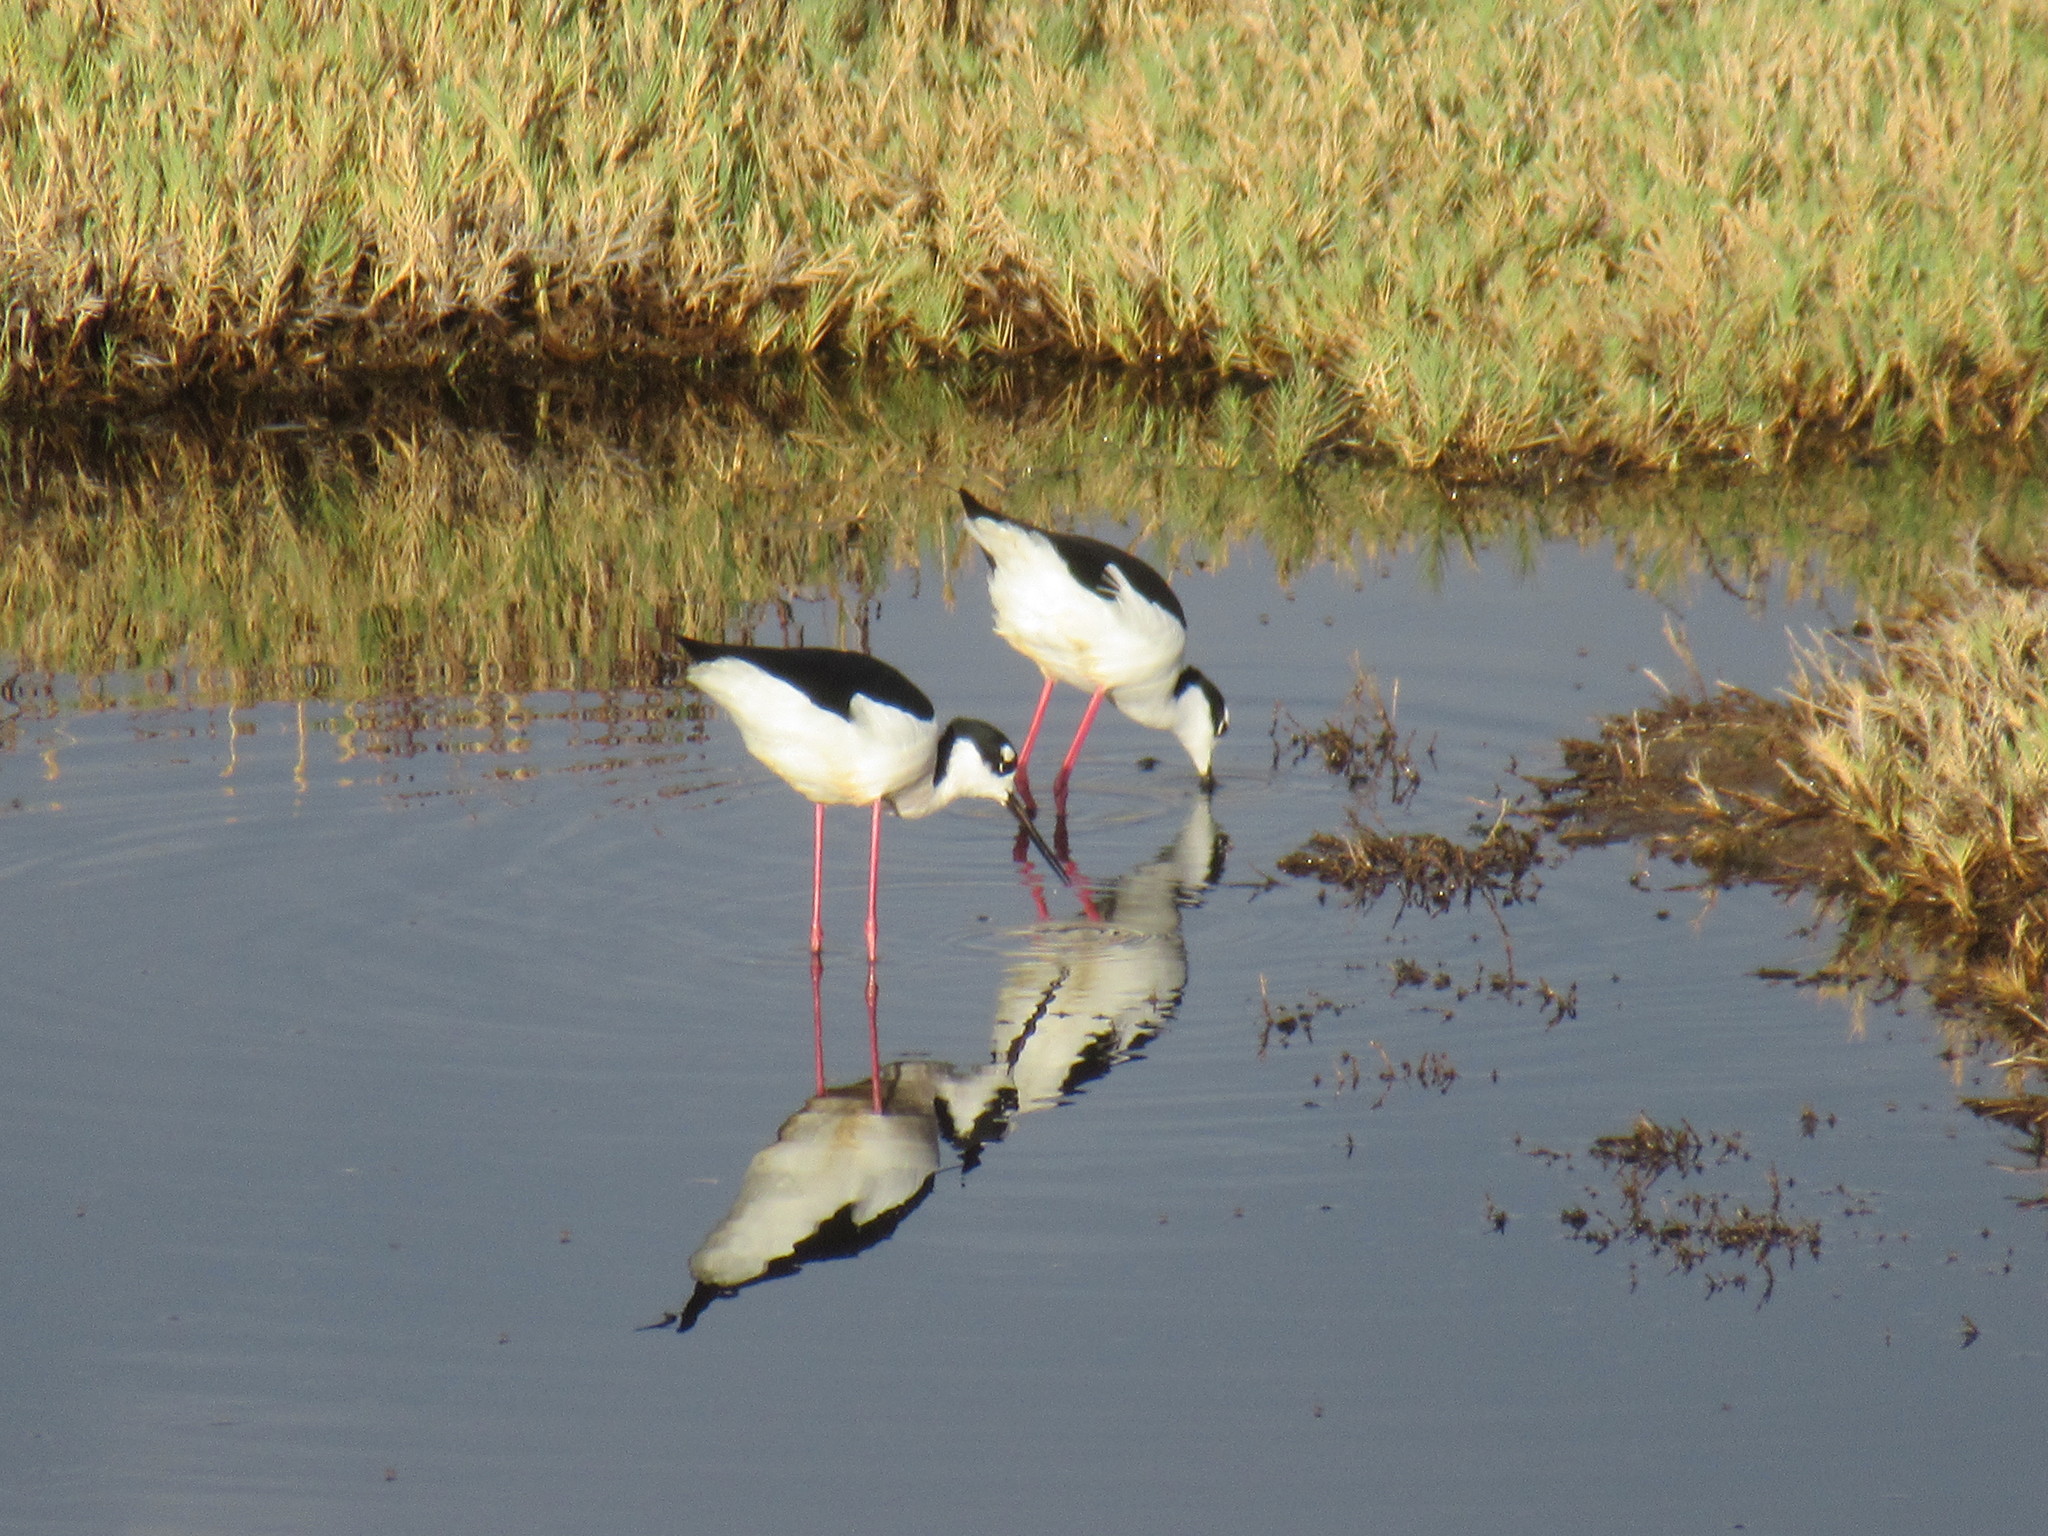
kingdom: Animalia
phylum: Chordata
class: Aves
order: Charadriiformes
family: Recurvirostridae
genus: Himantopus
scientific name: Himantopus mexicanus
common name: Black-necked stilt
